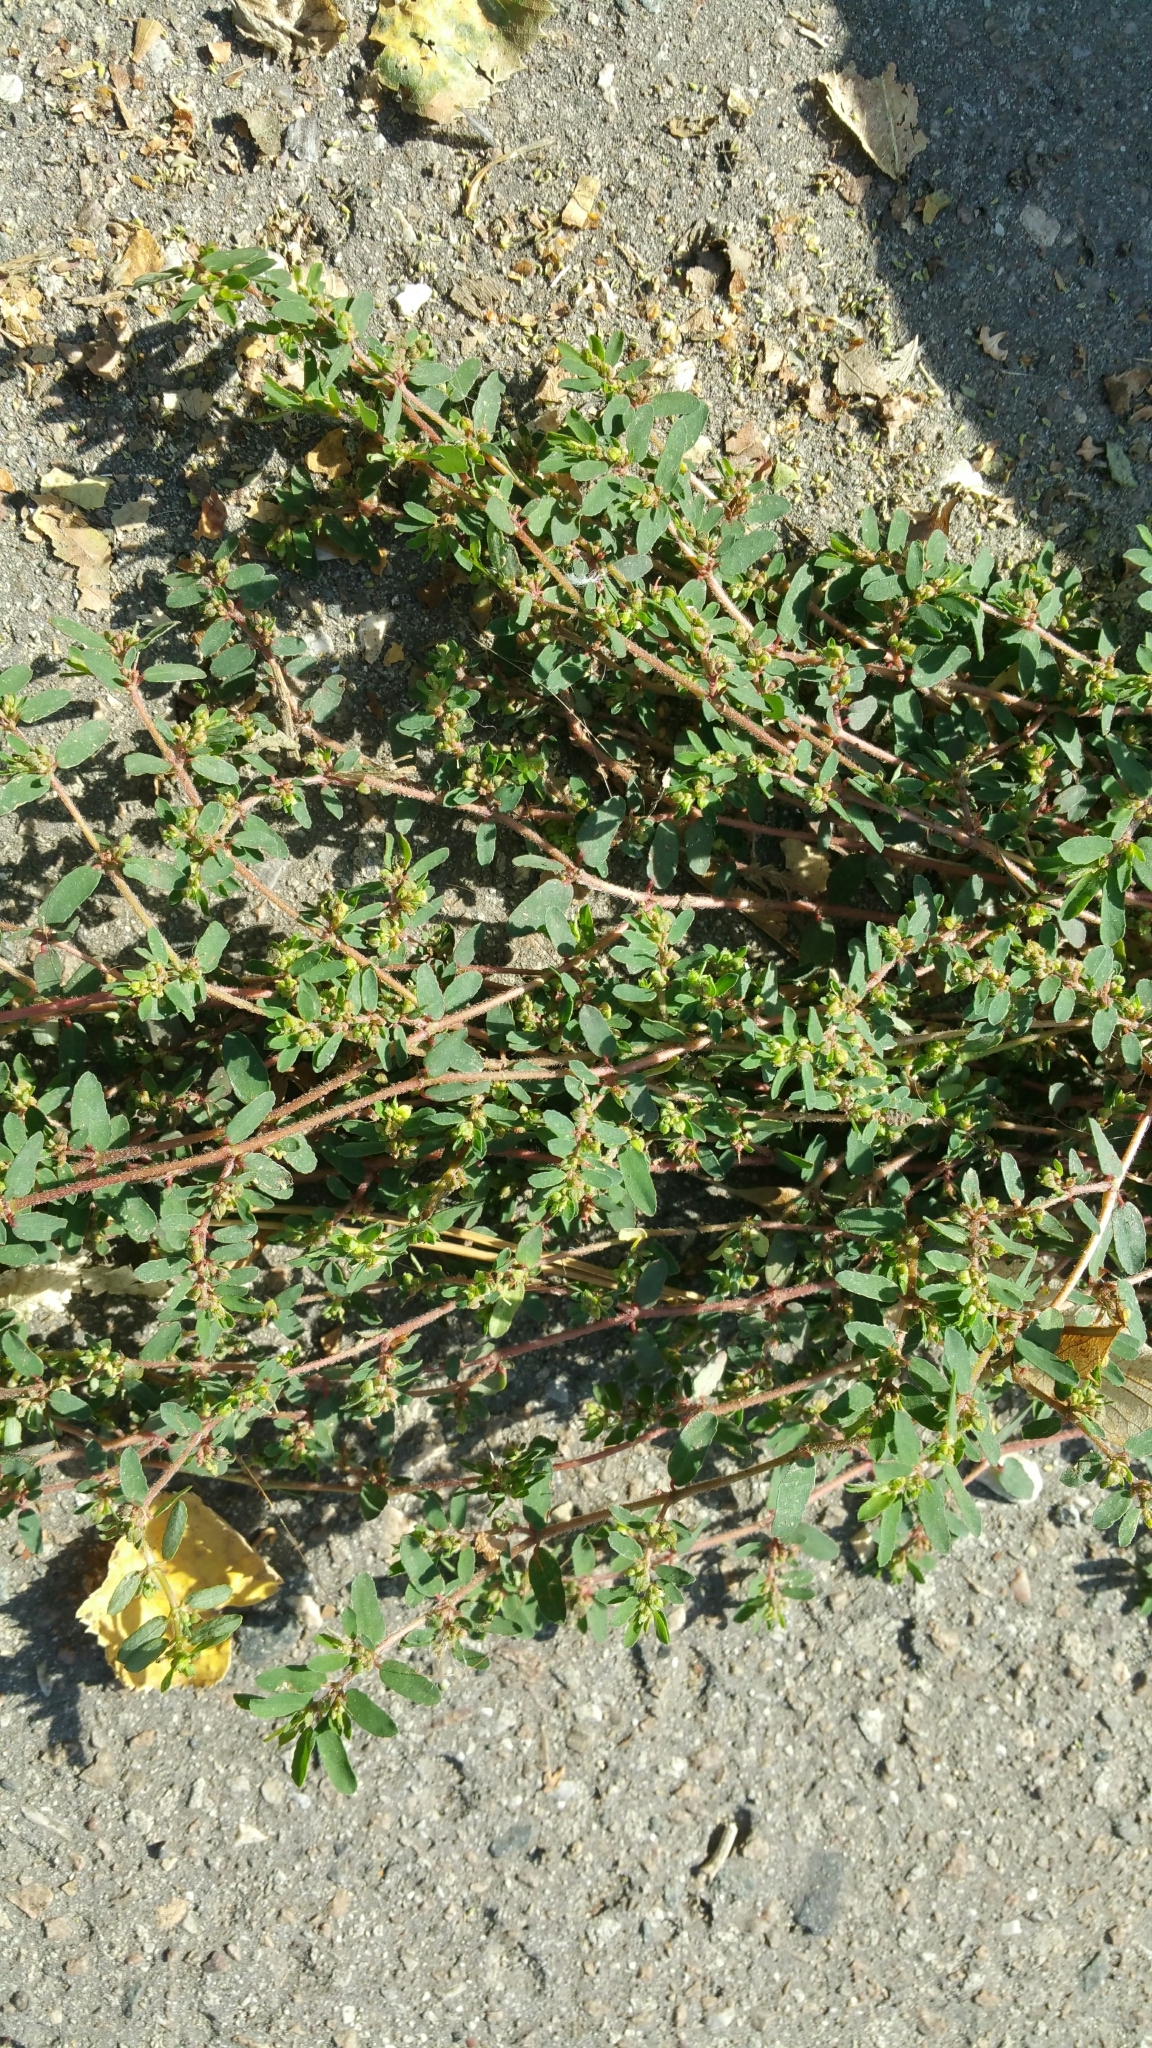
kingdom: Plantae
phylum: Tracheophyta
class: Magnoliopsida
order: Malpighiales
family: Euphorbiaceae
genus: Euphorbia
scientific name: Euphorbia maculata
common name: Spotted spurge
